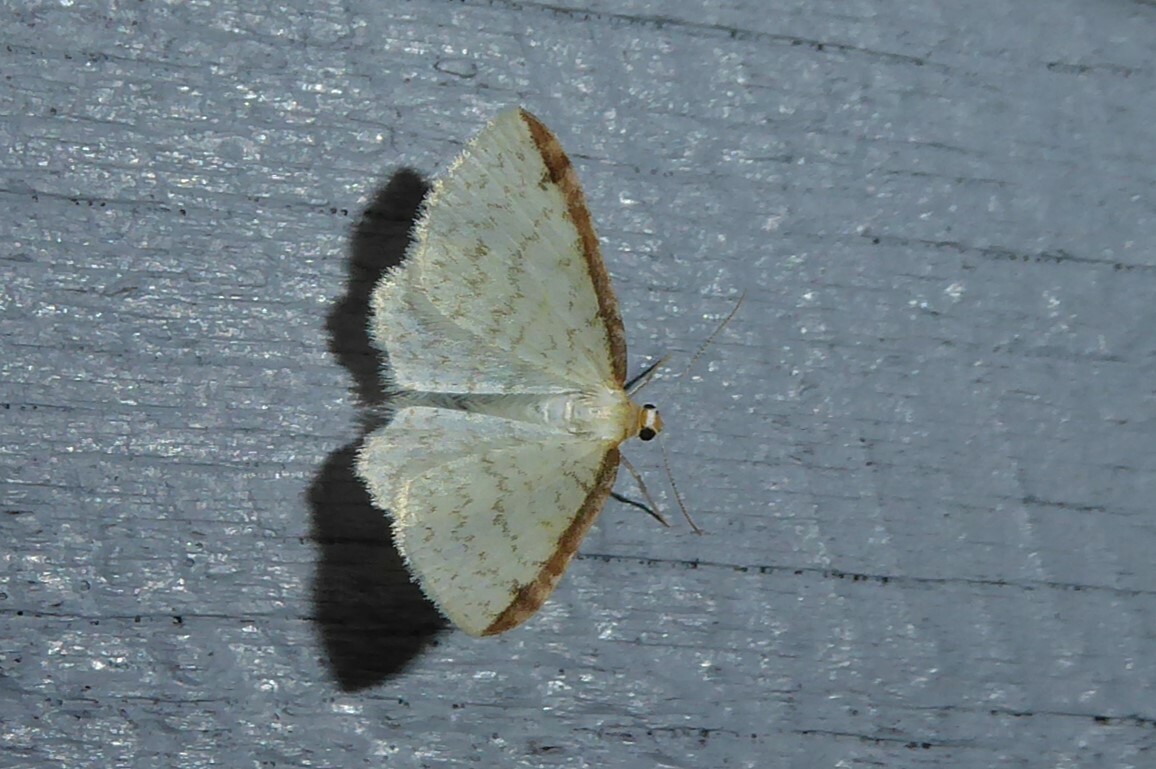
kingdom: Animalia
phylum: Arthropoda
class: Insecta
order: Lepidoptera
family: Geometridae
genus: Epiphryne
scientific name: Epiphryne undosata
